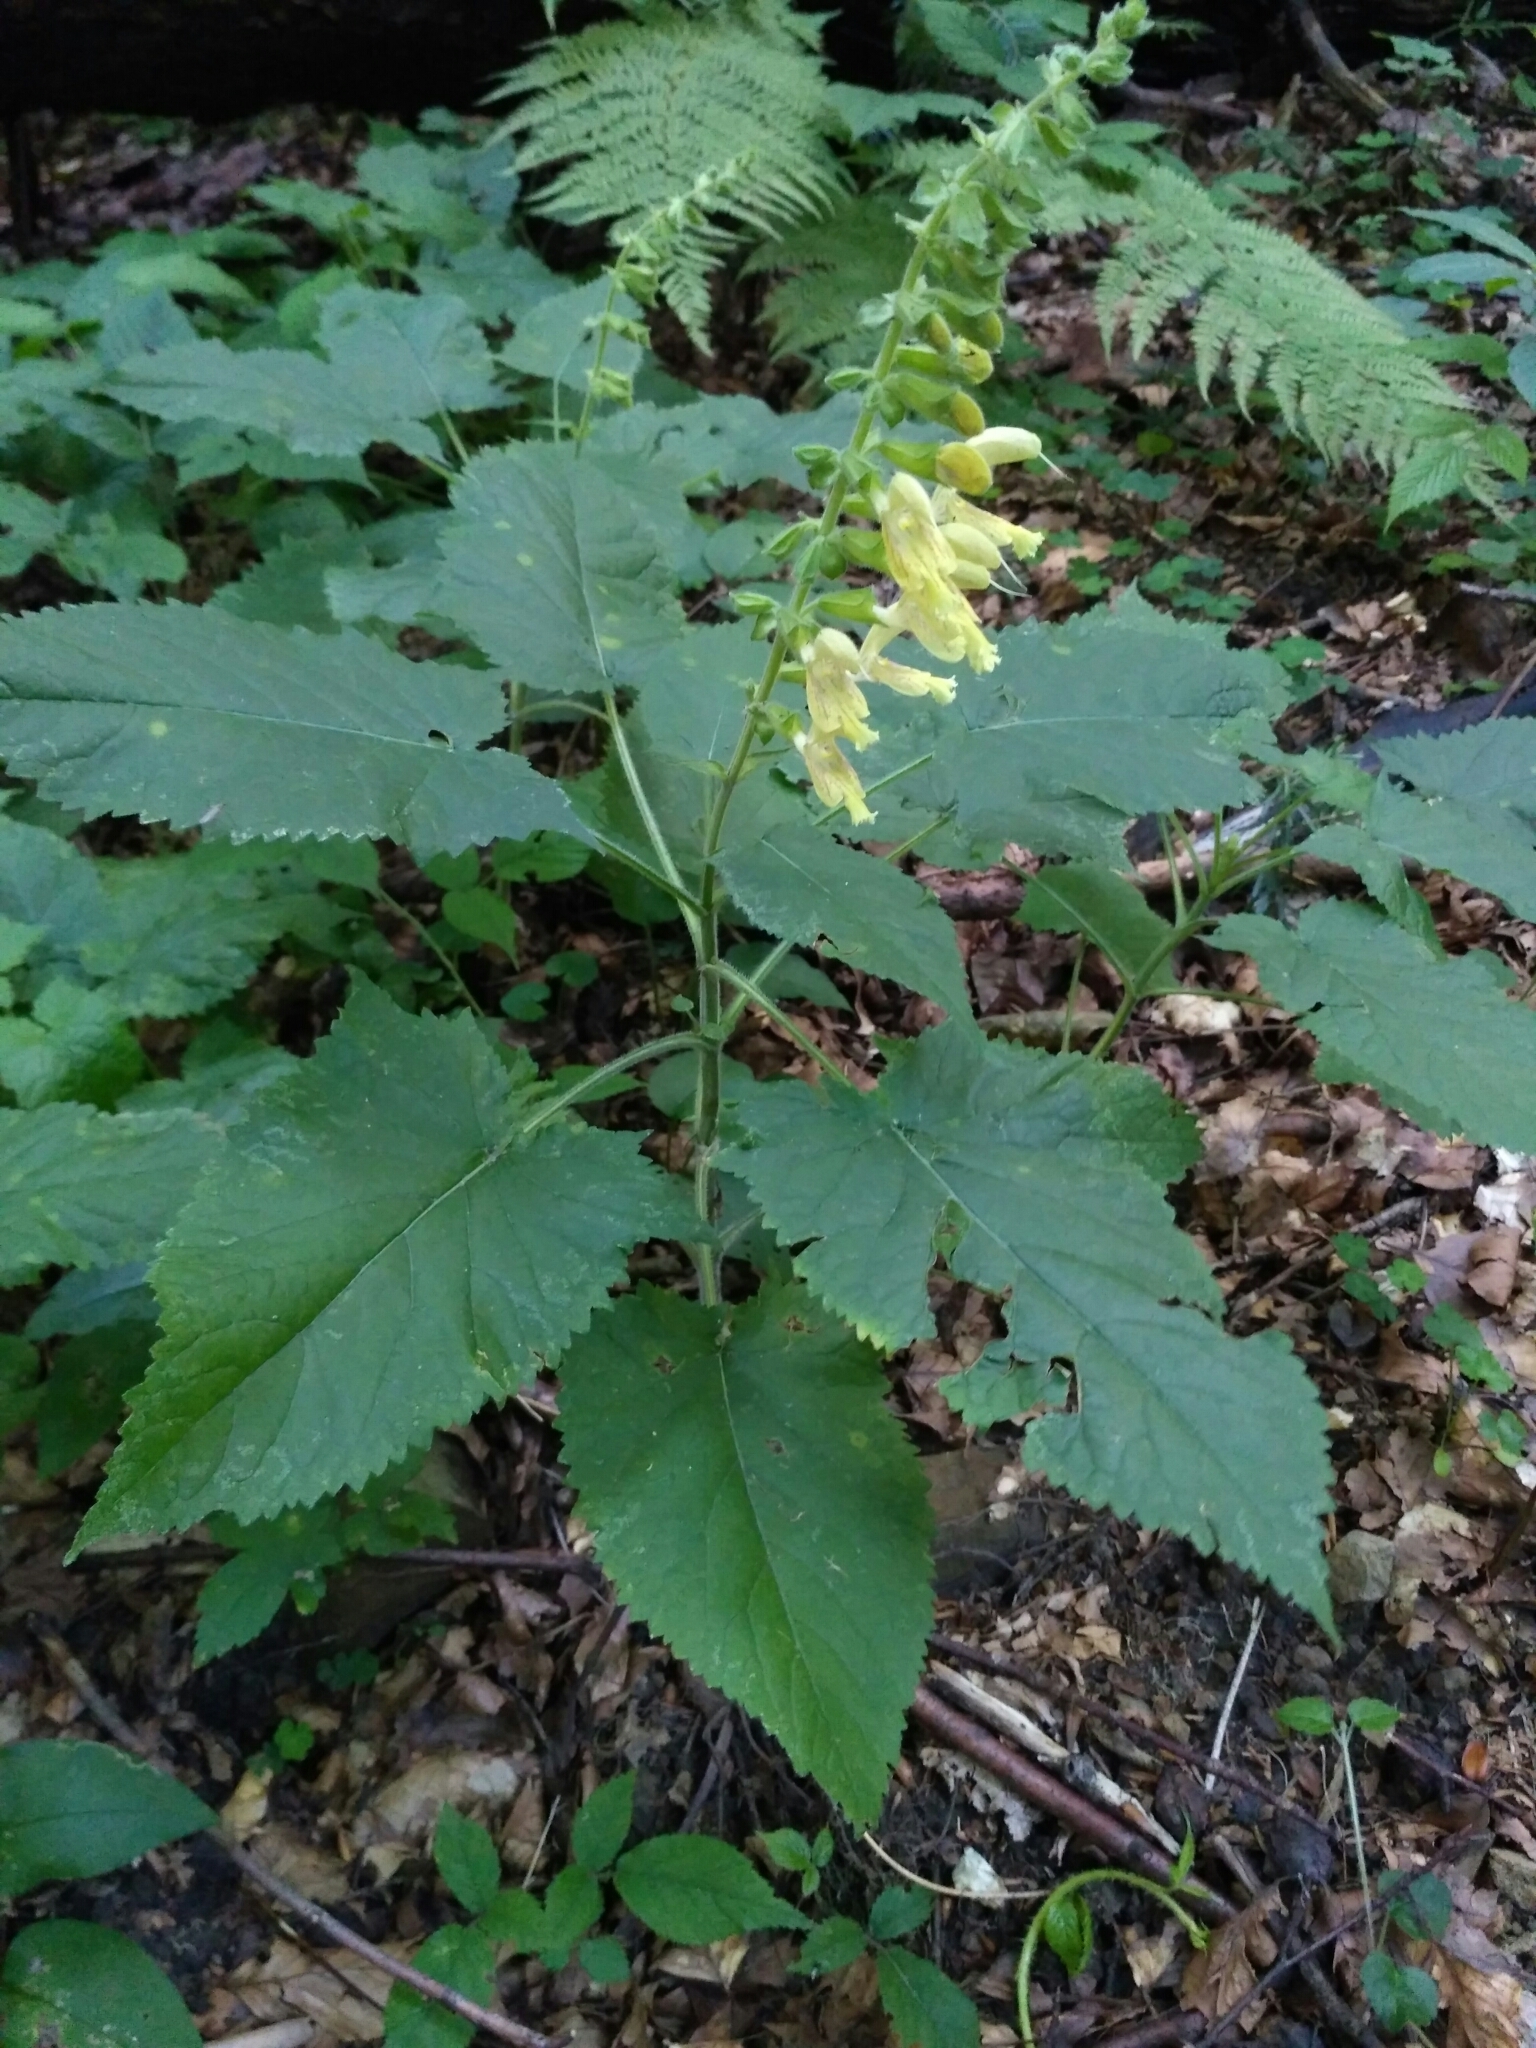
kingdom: Plantae
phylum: Tracheophyta
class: Magnoliopsida
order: Lamiales
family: Lamiaceae
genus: Salvia
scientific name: Salvia glutinosa
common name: Sticky clary
